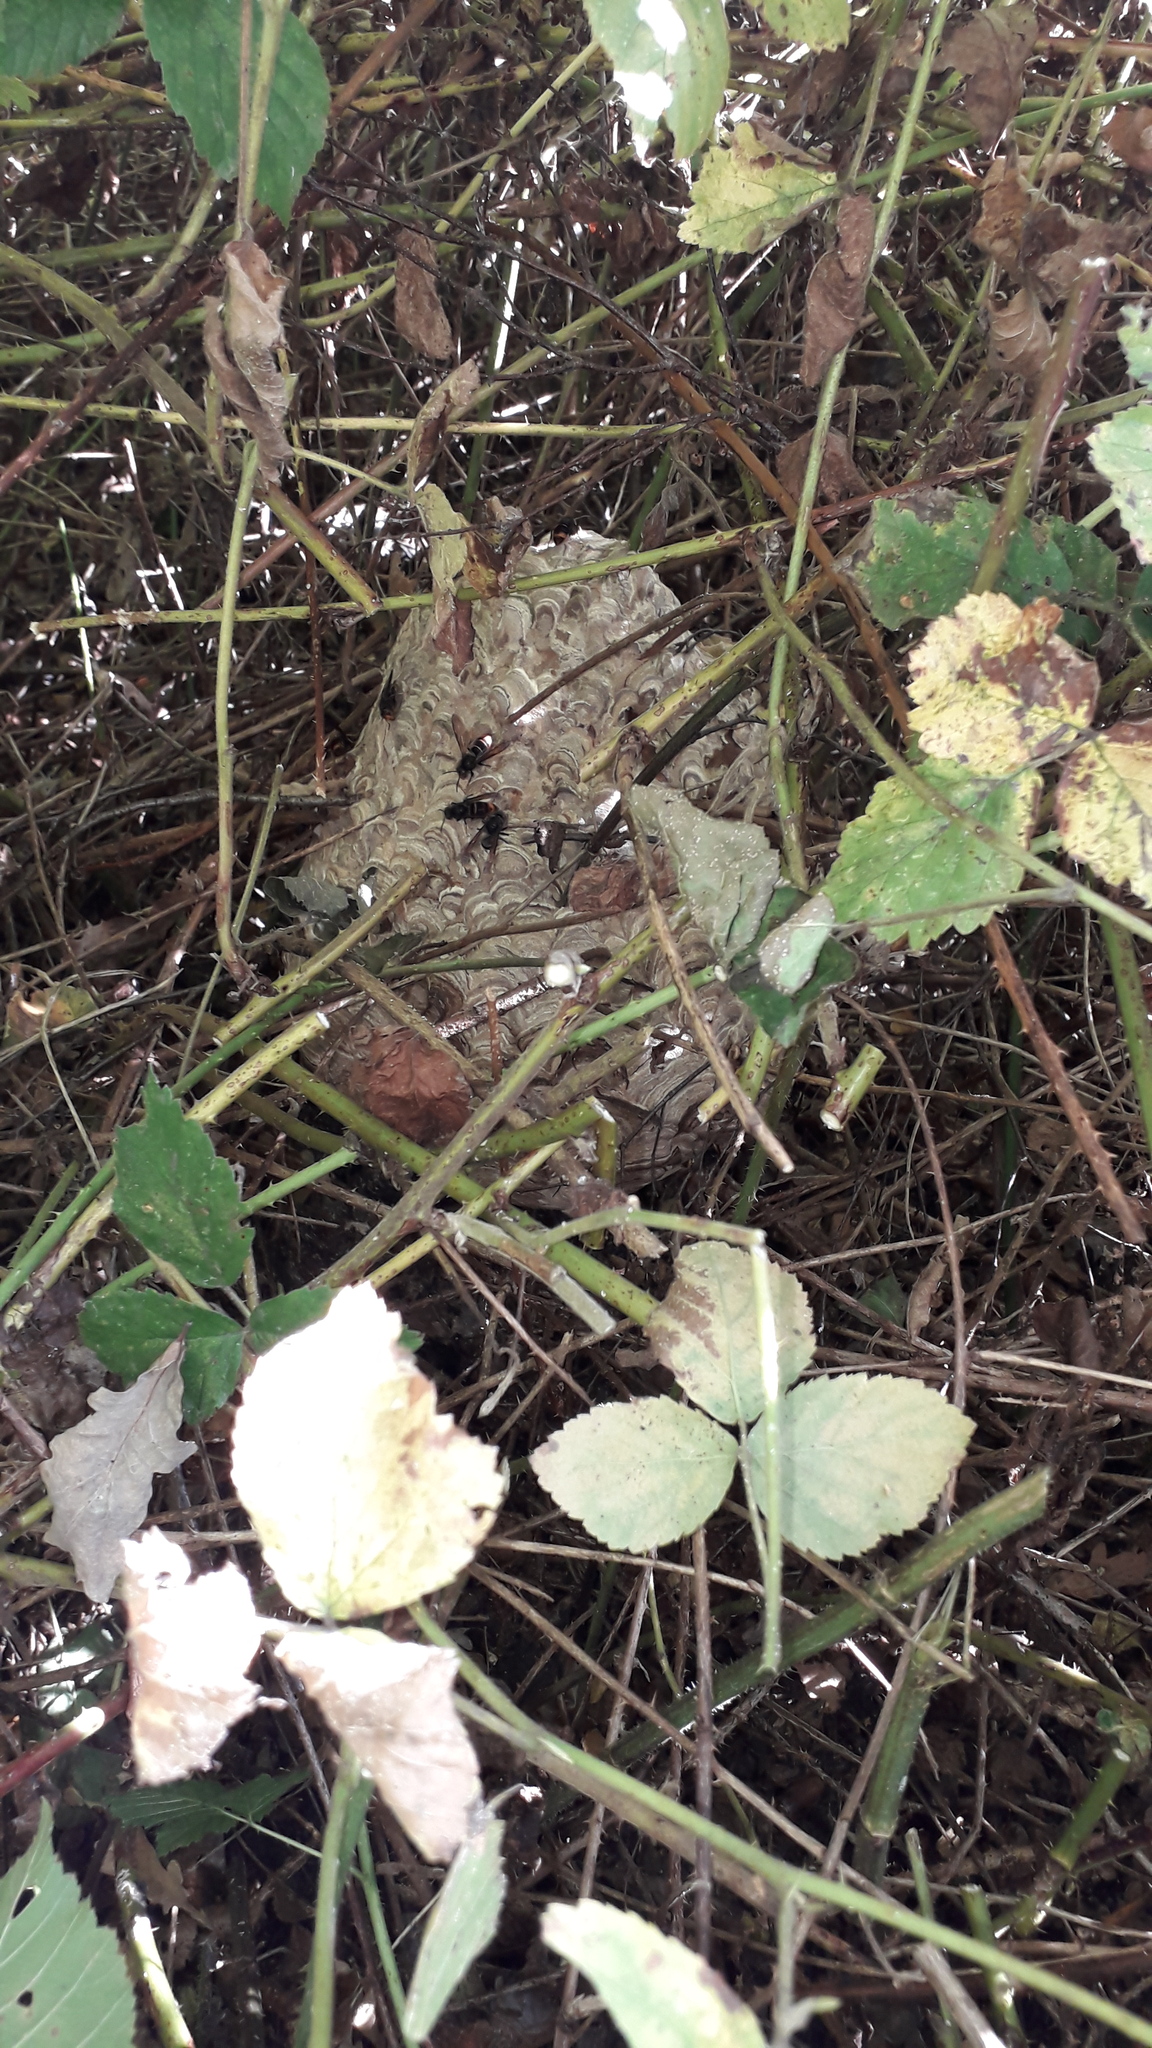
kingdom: Animalia
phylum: Arthropoda
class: Insecta
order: Hymenoptera
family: Vespidae
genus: Vespa
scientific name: Vespa velutina
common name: Asian hornet
